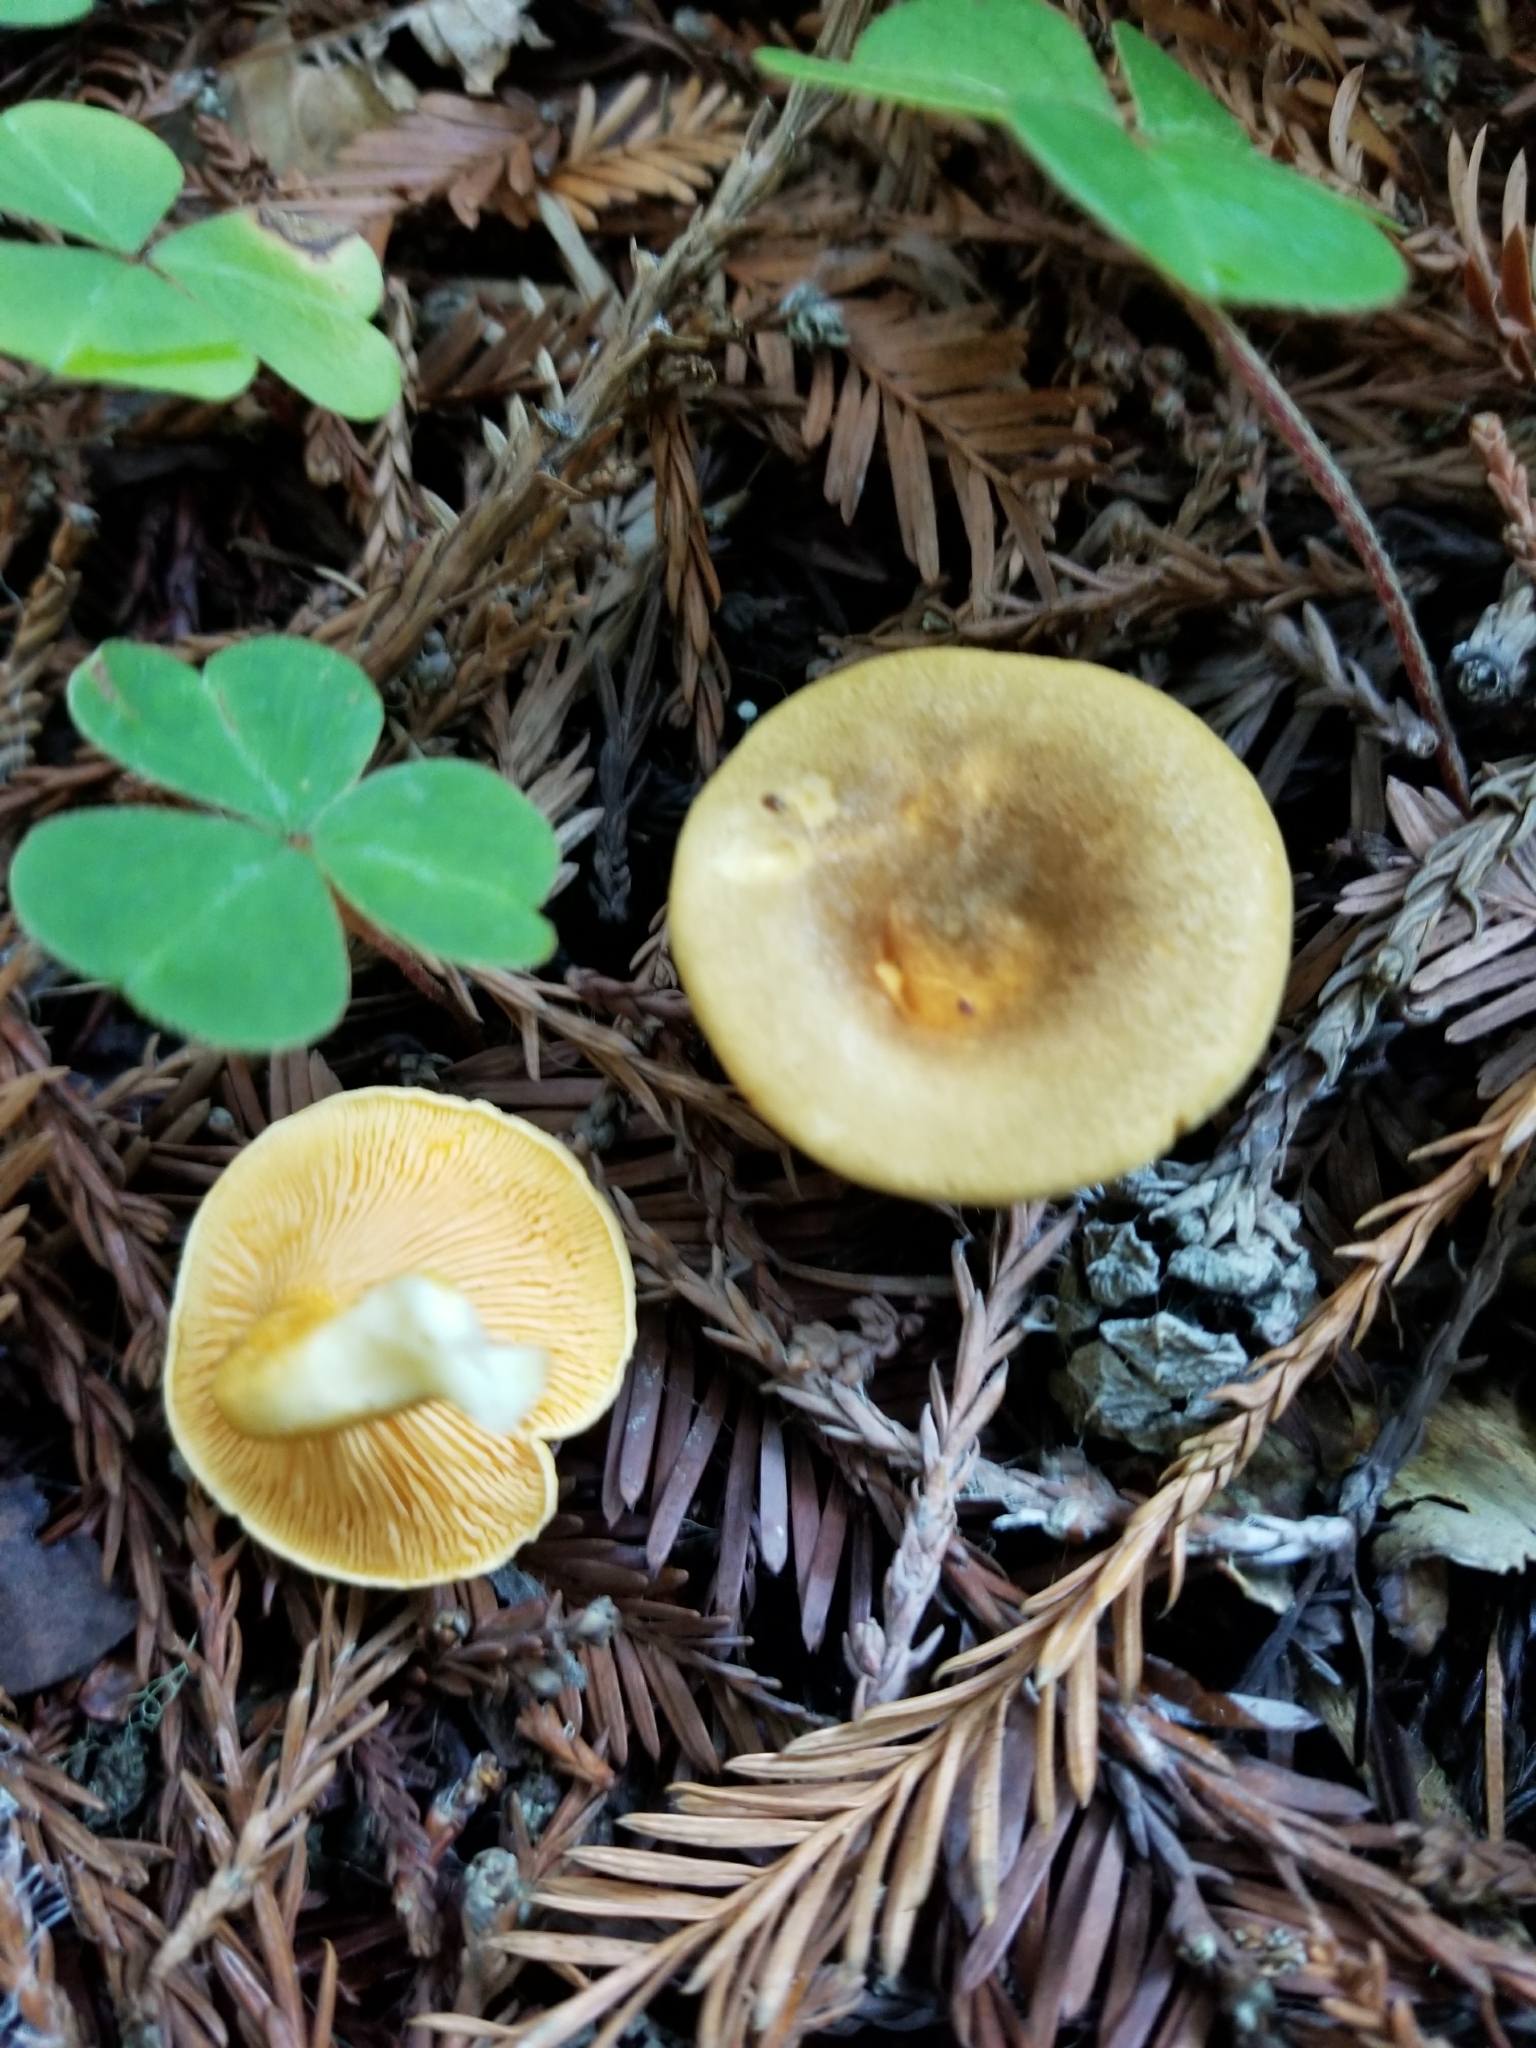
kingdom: Fungi
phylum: Basidiomycota
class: Agaricomycetes
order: Boletales
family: Hygrophoropsidaceae
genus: Hygrophoropsis
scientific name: Hygrophoropsis aurantiaca
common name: False chanterelle
